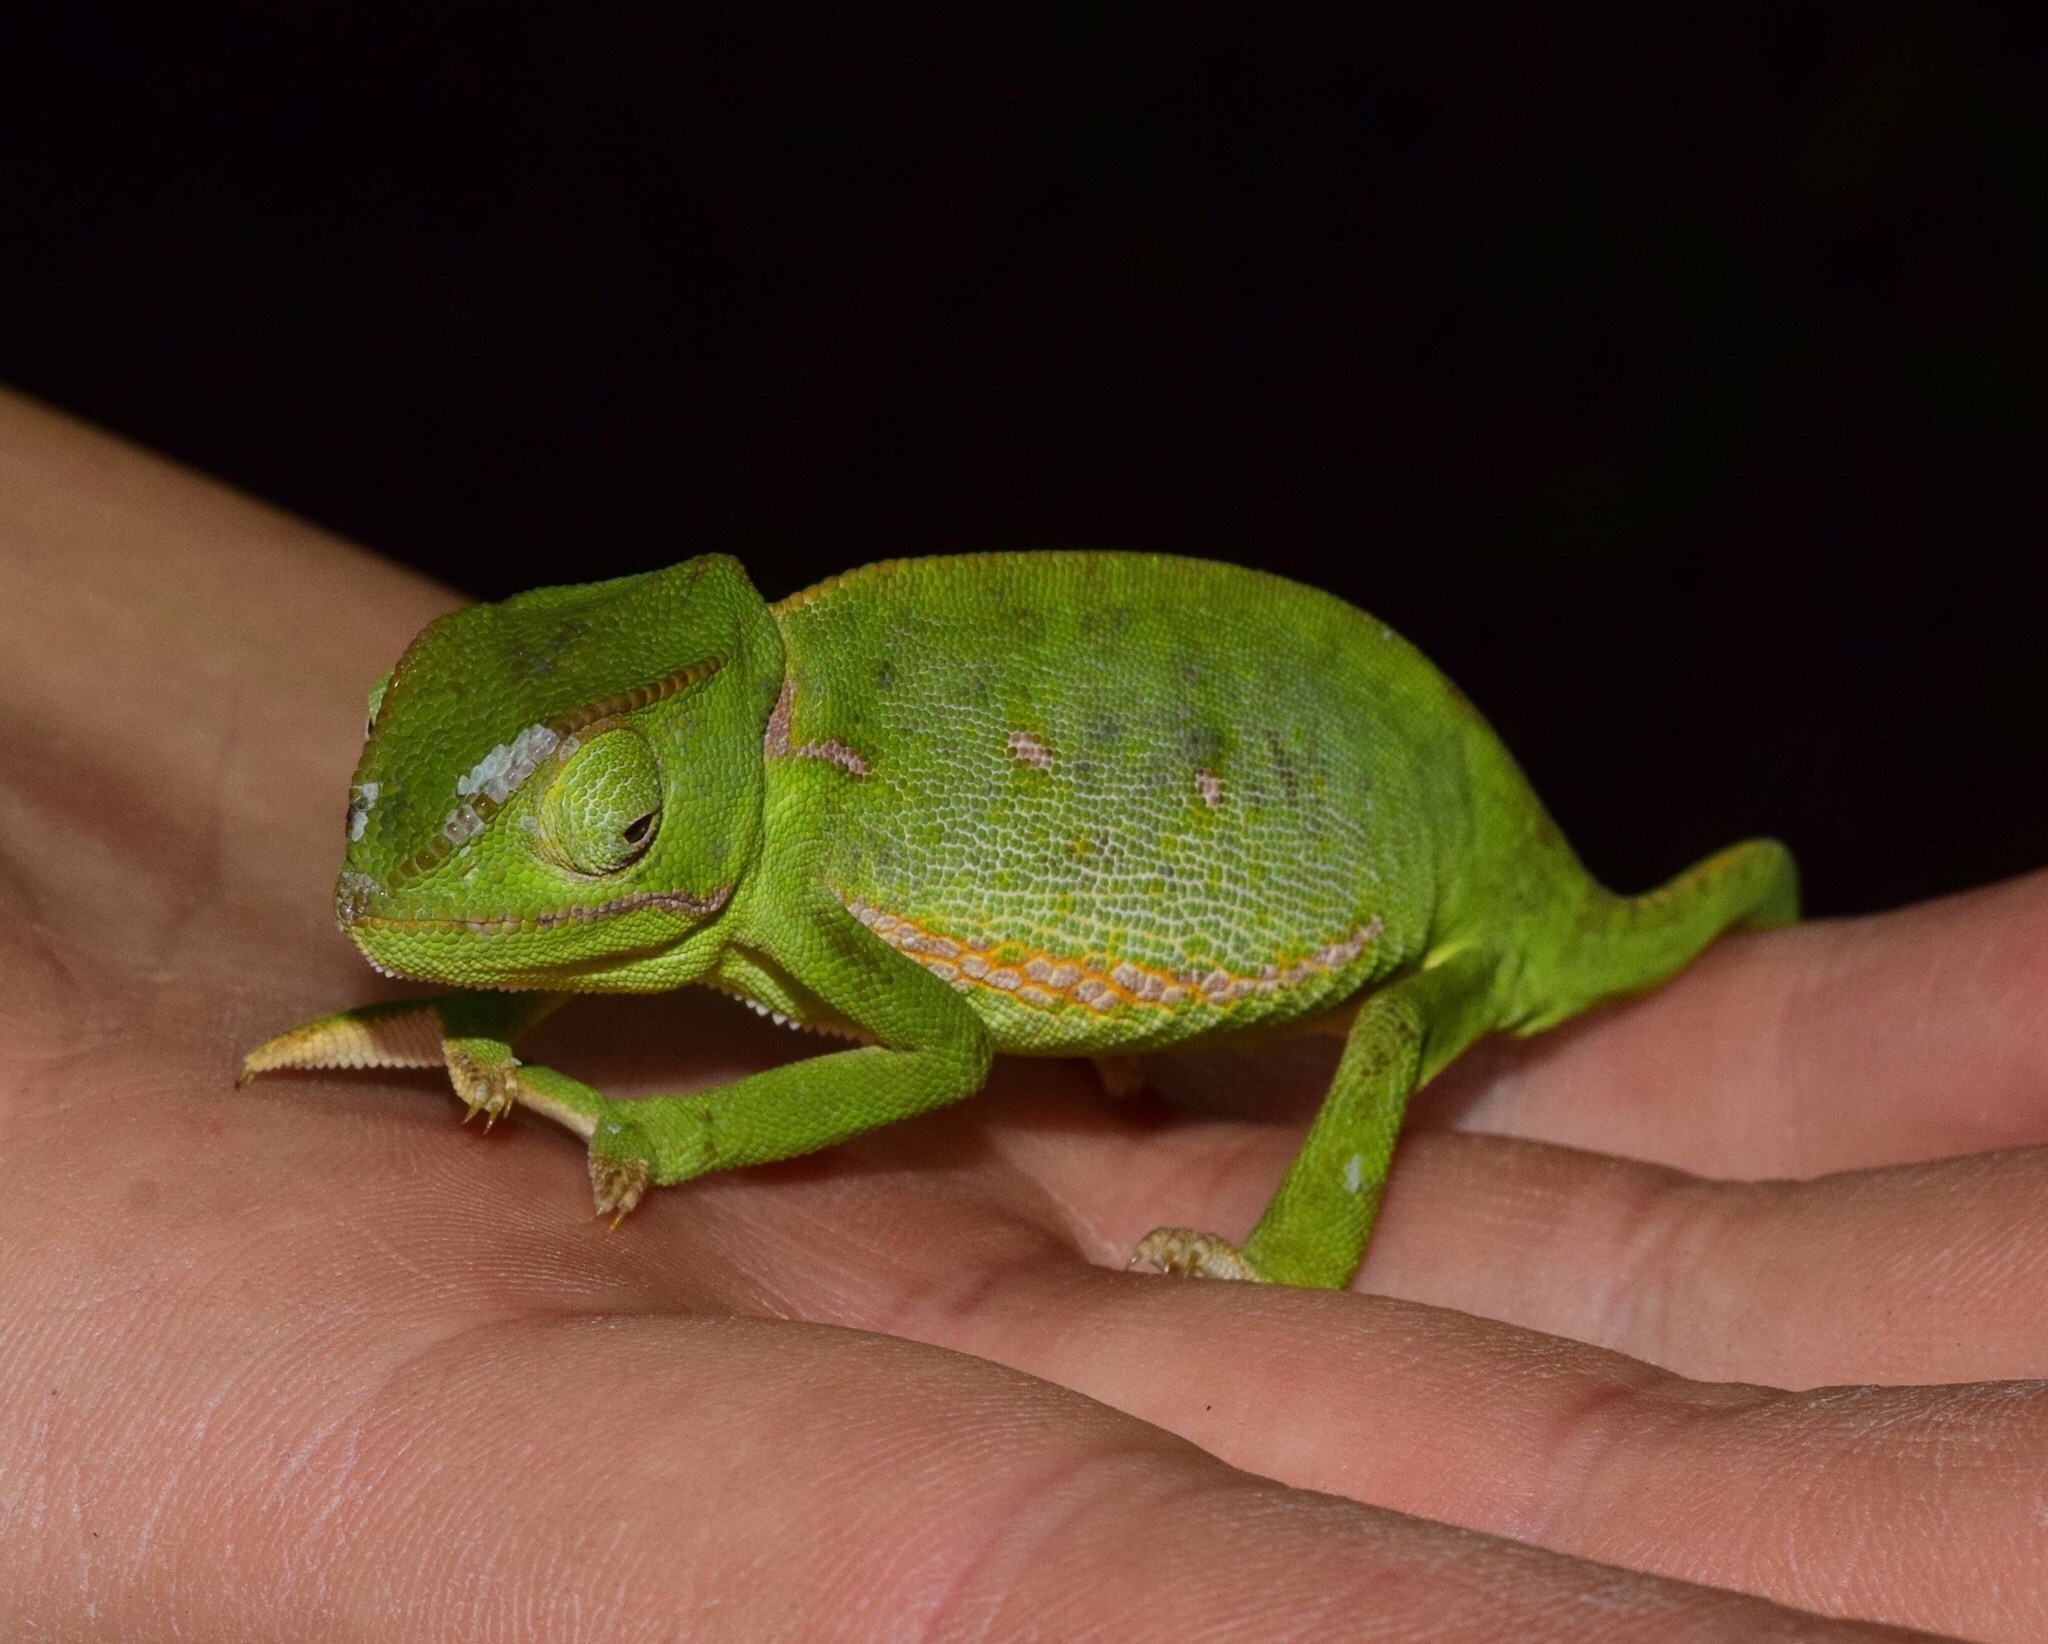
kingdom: Animalia
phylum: Chordata
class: Squamata
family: Chamaeleonidae
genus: Chamaeleo
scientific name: Chamaeleo dilepis
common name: Flapneck chameleon
